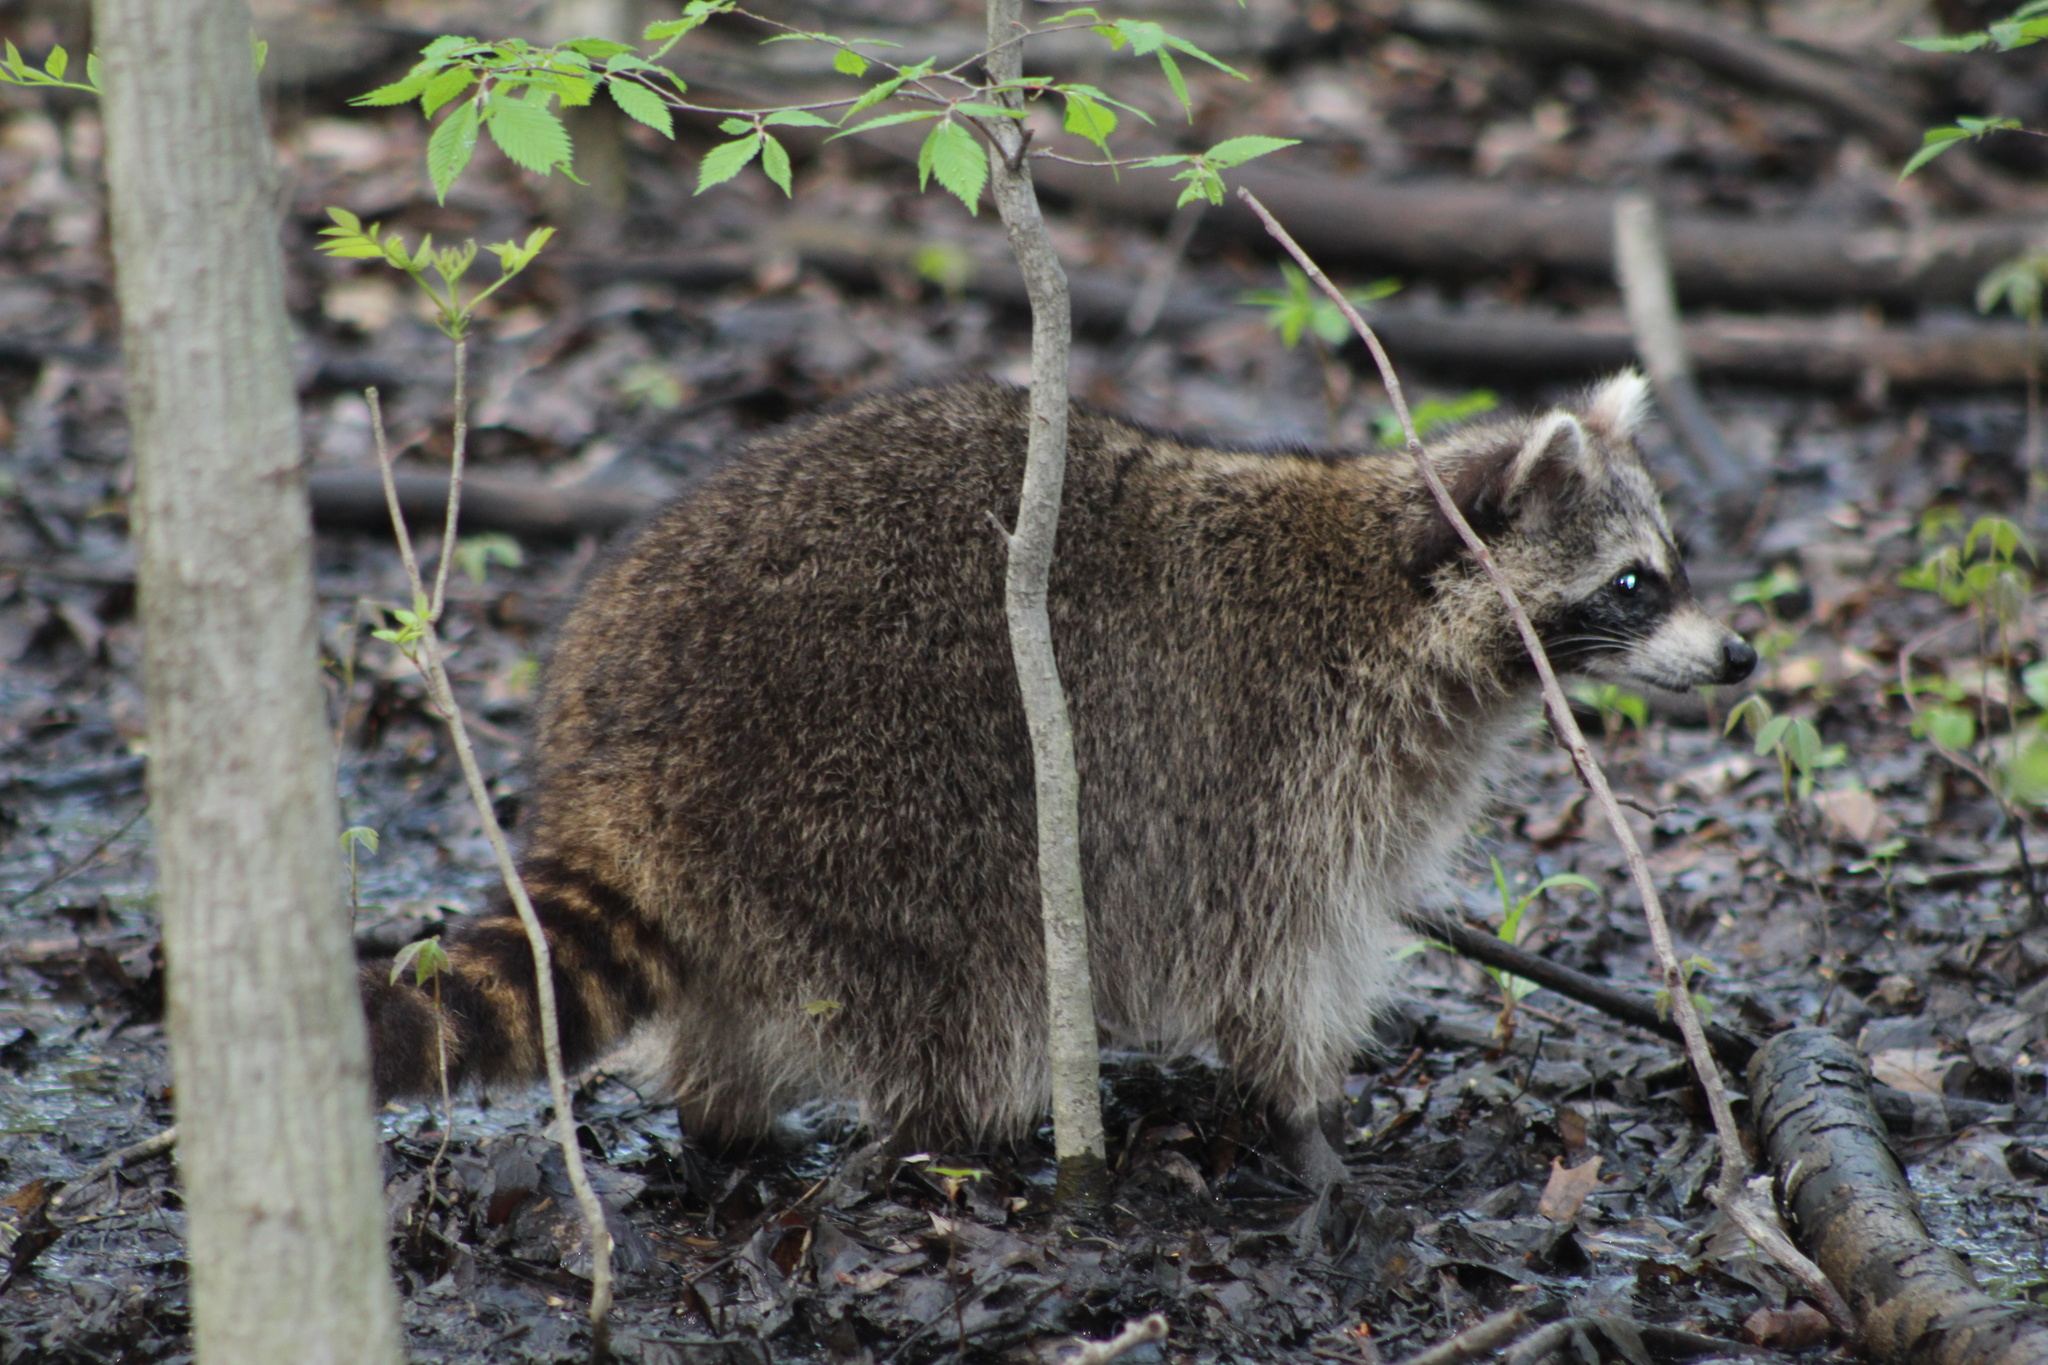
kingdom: Animalia
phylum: Chordata
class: Mammalia
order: Carnivora
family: Procyonidae
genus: Procyon
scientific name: Procyon lotor
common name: Raccoon
